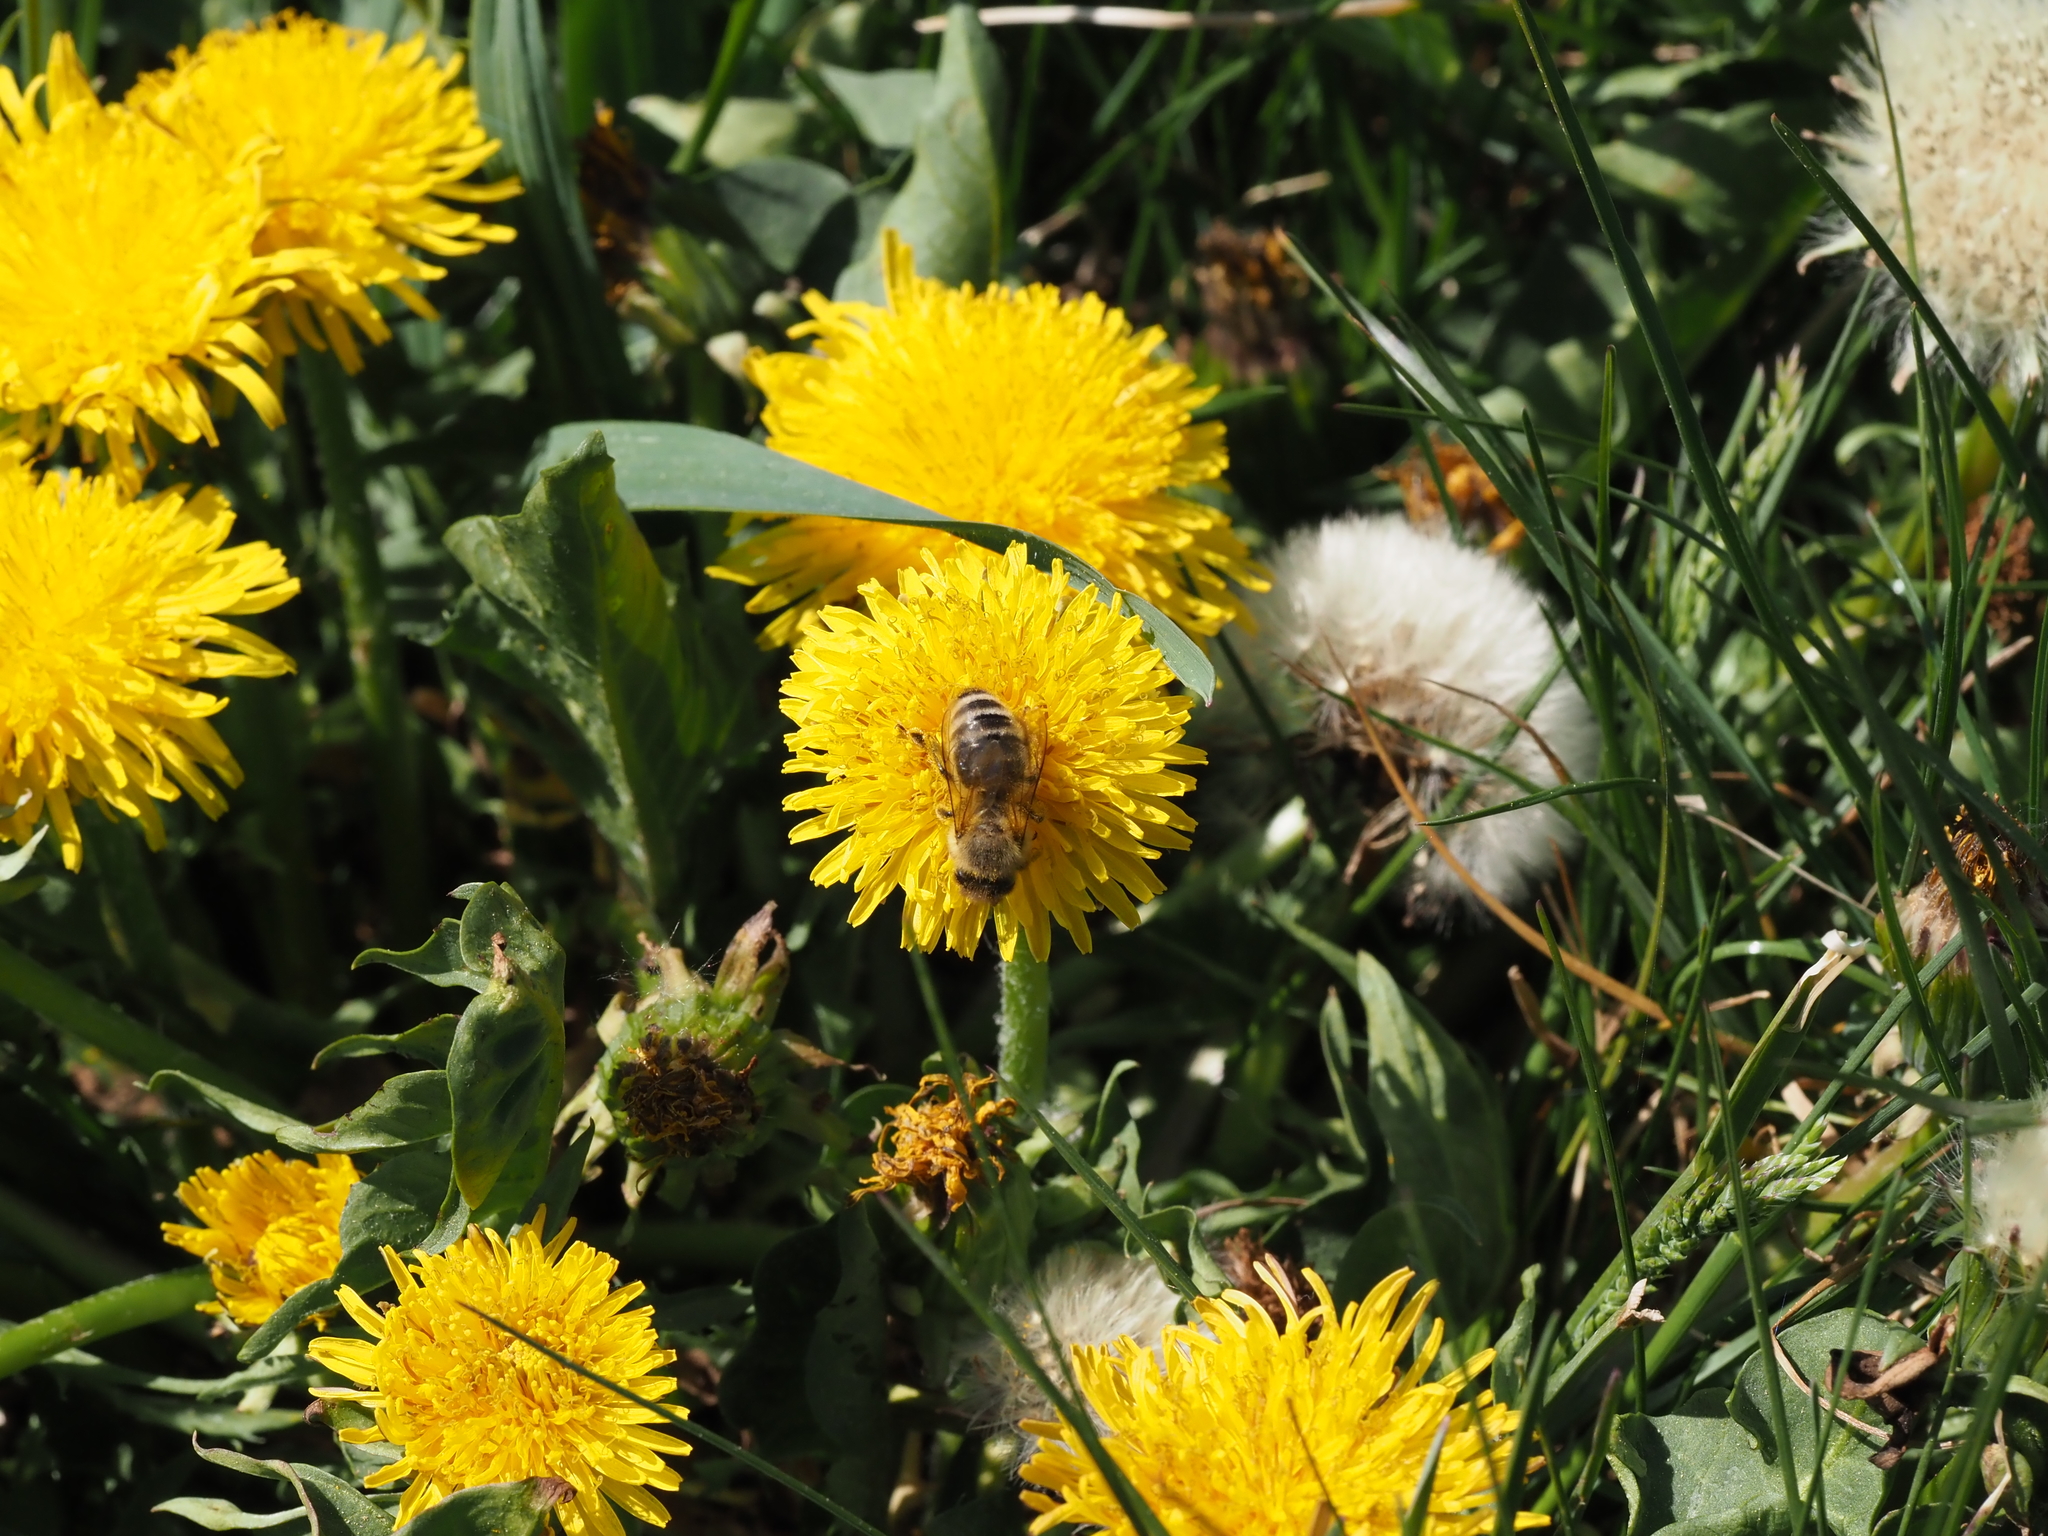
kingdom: Animalia
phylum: Arthropoda
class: Insecta
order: Hymenoptera
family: Apidae
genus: Apis
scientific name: Apis mellifera
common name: Honey bee
